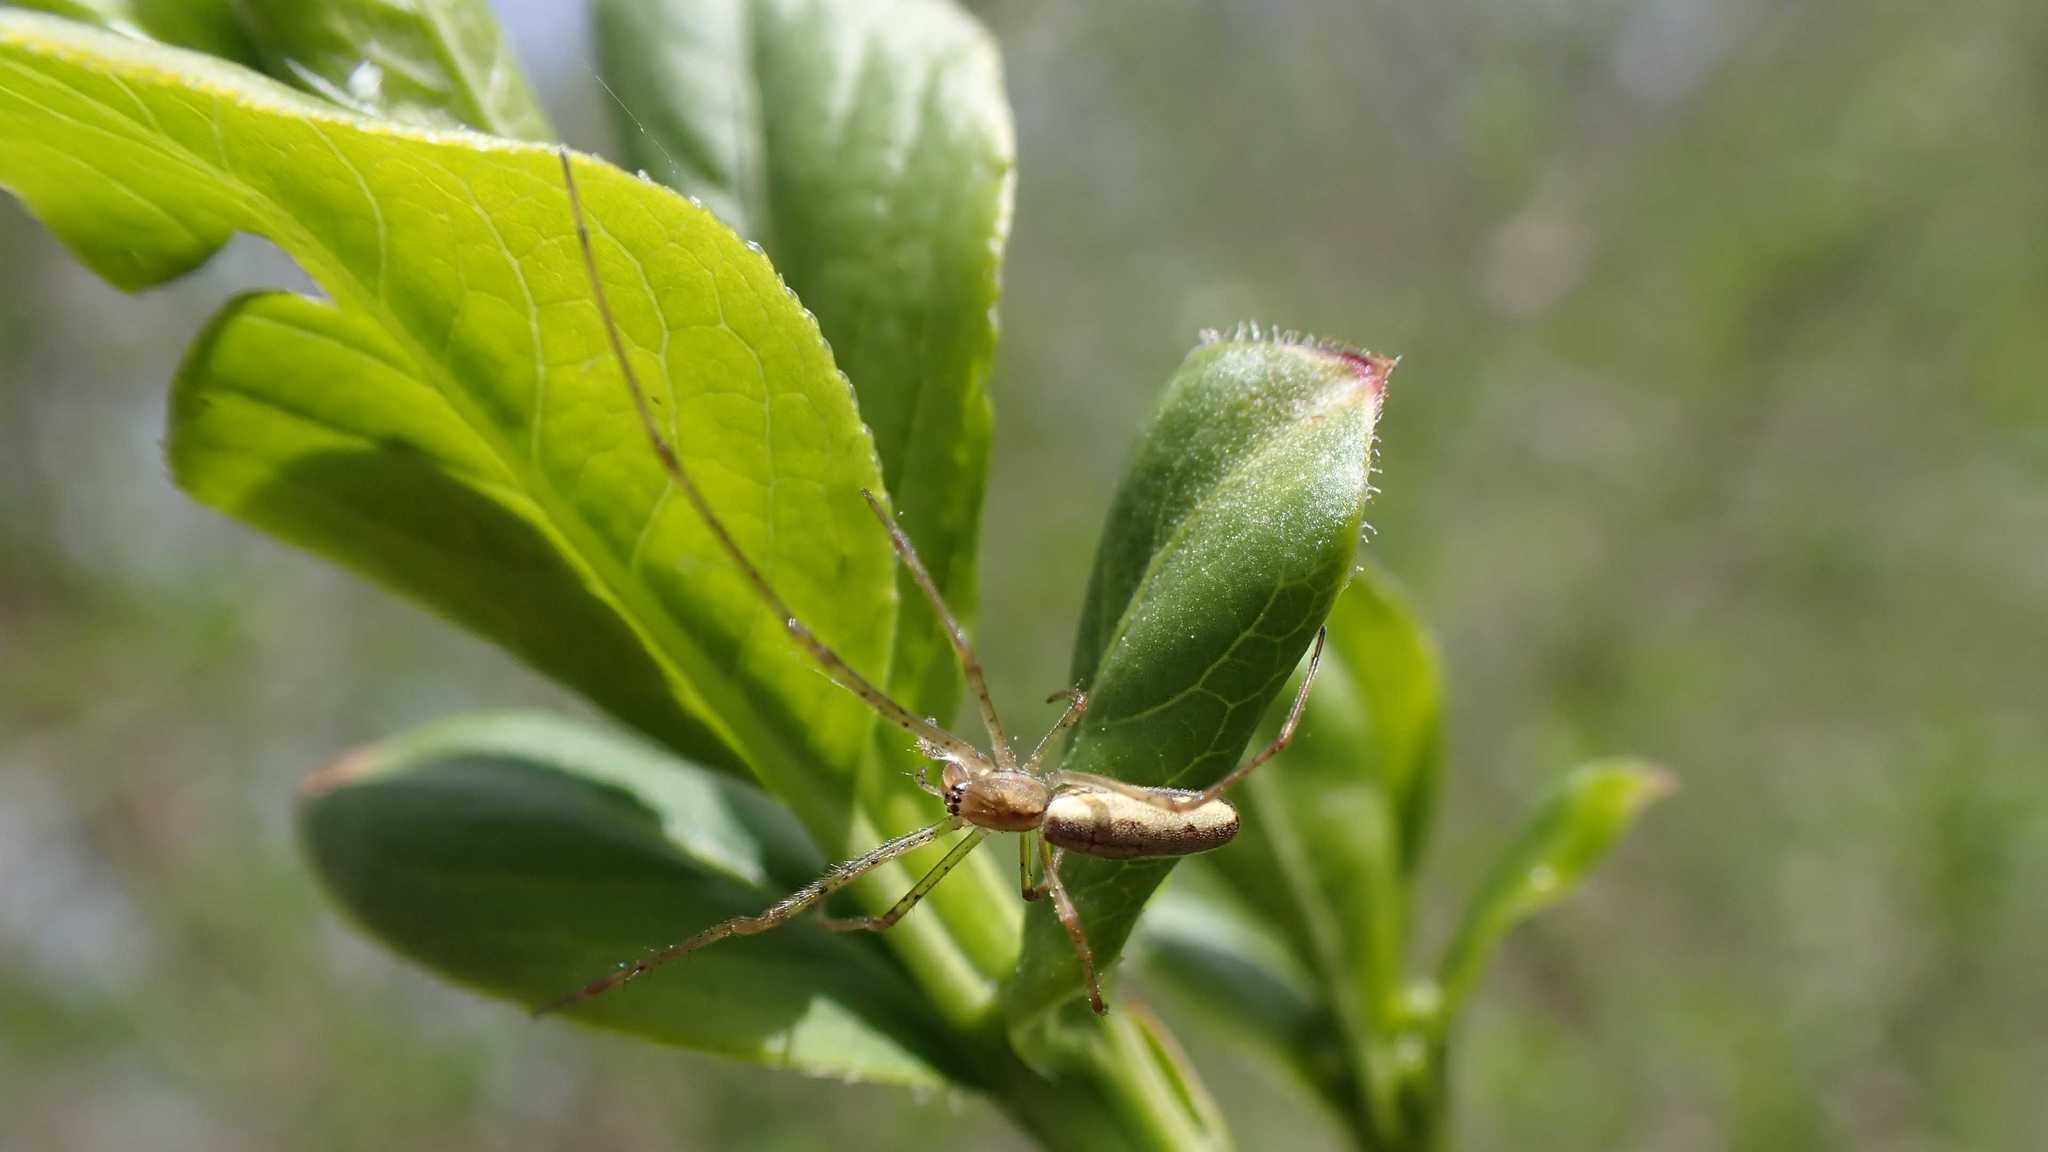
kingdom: Animalia
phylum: Arthropoda
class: Arachnida
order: Araneae
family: Tetragnathidae
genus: Tetragnatha
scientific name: Tetragnatha
